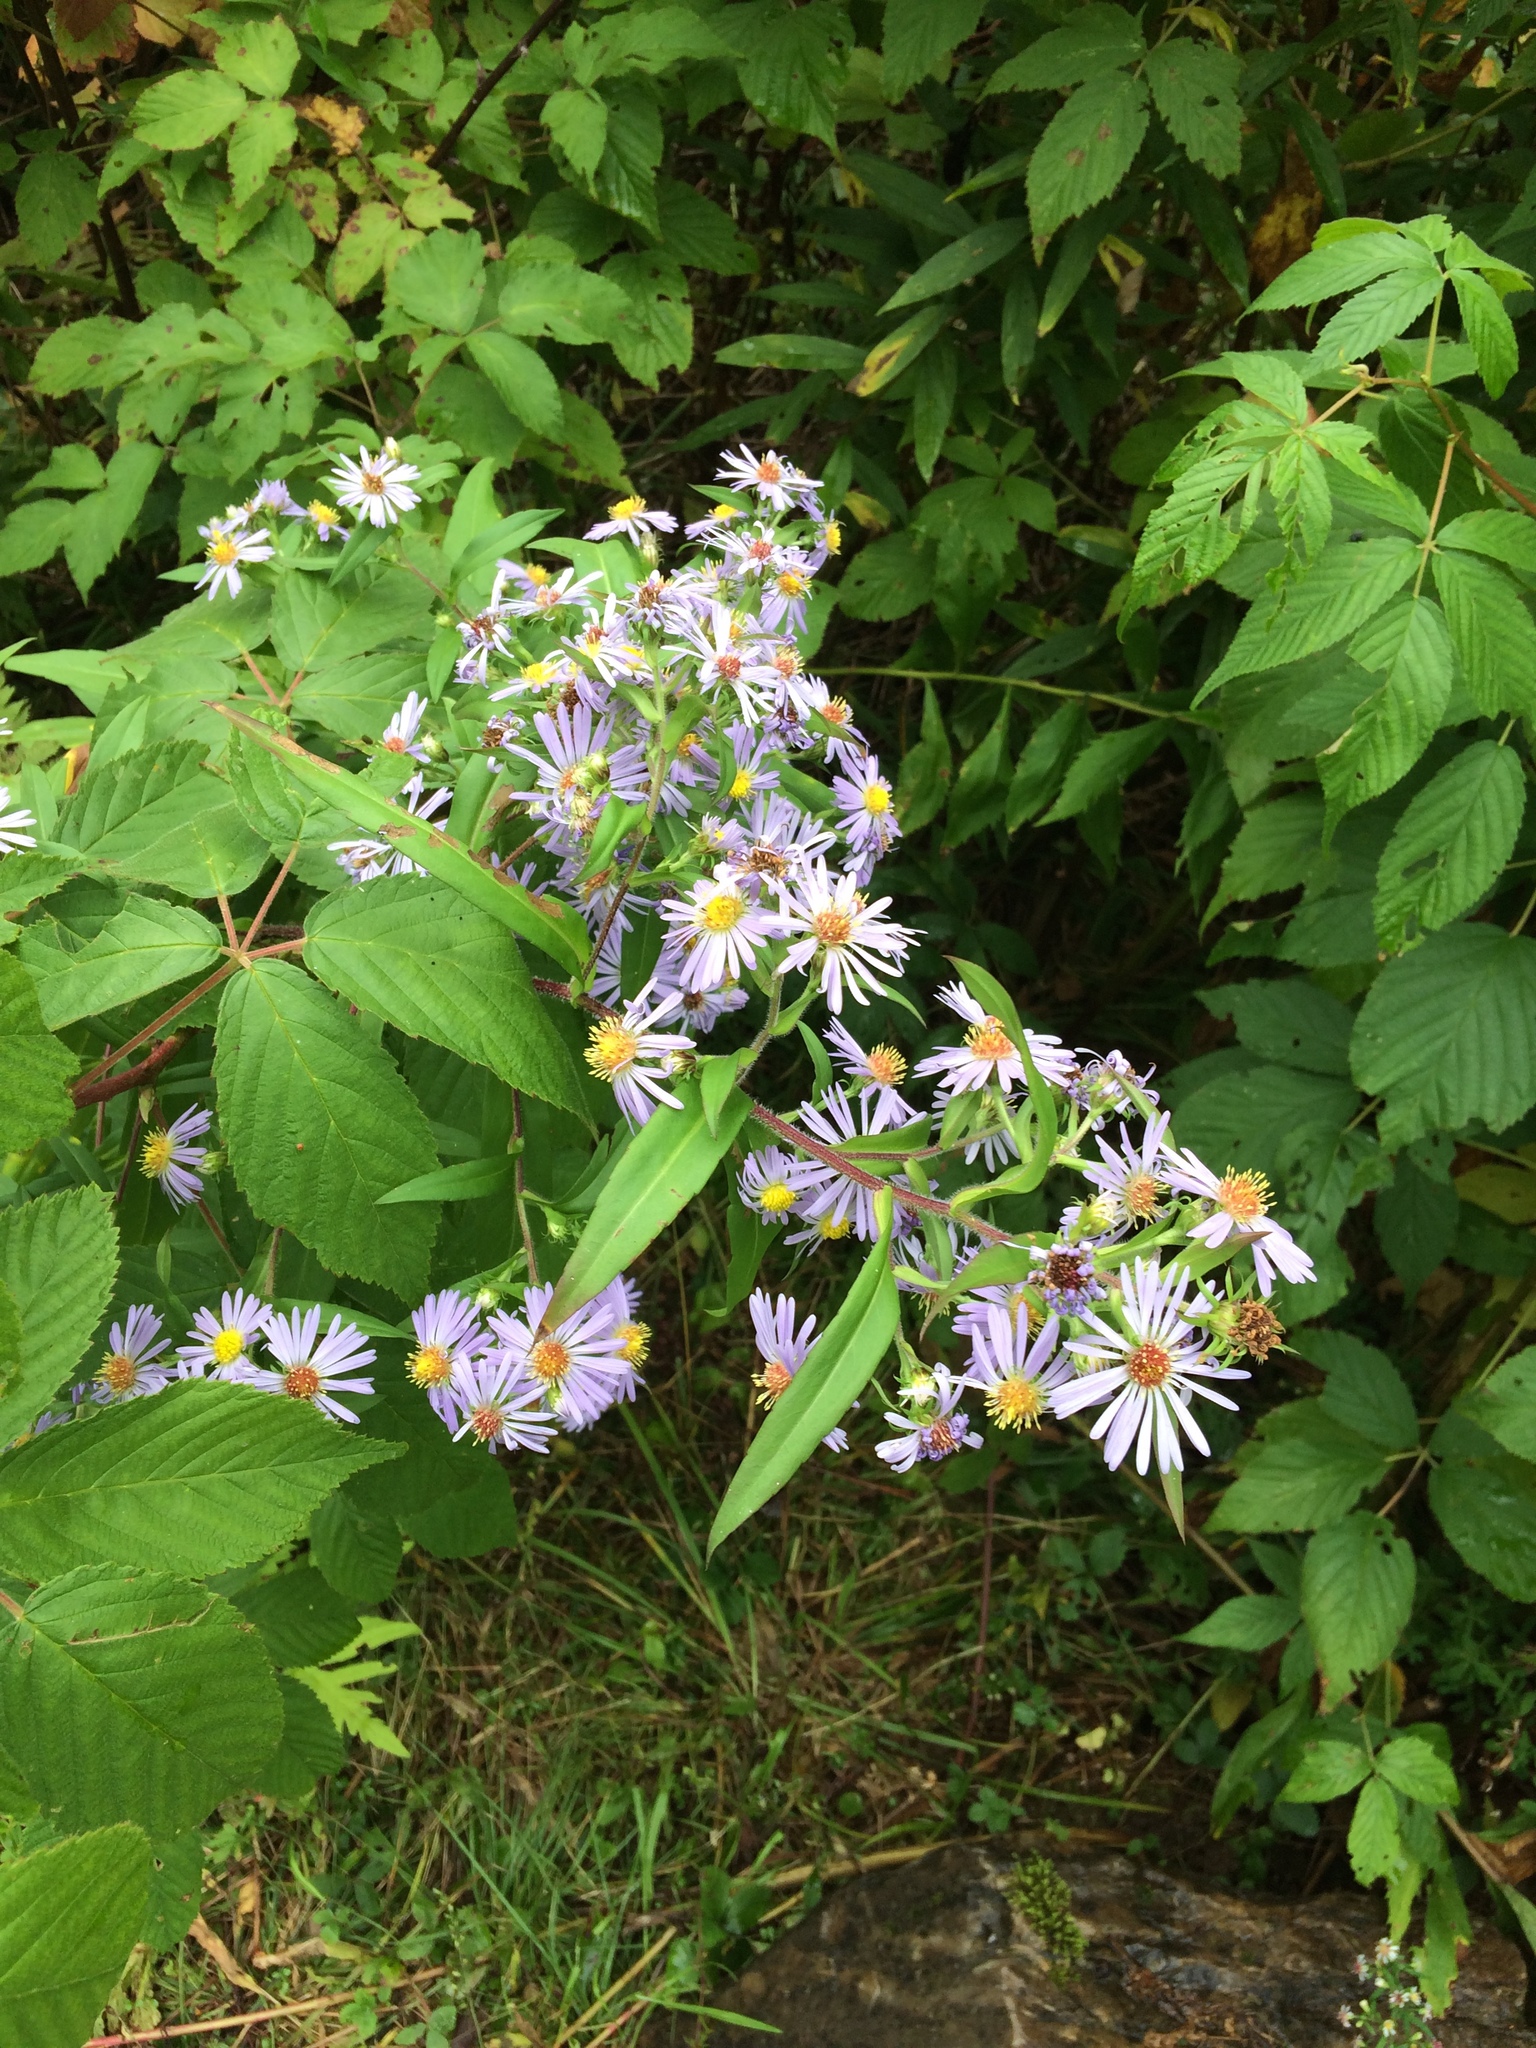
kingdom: Plantae
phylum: Tracheophyta
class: Magnoliopsida
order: Asterales
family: Asteraceae
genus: Symphyotrichum
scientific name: Symphyotrichum puniceum
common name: Bog aster
